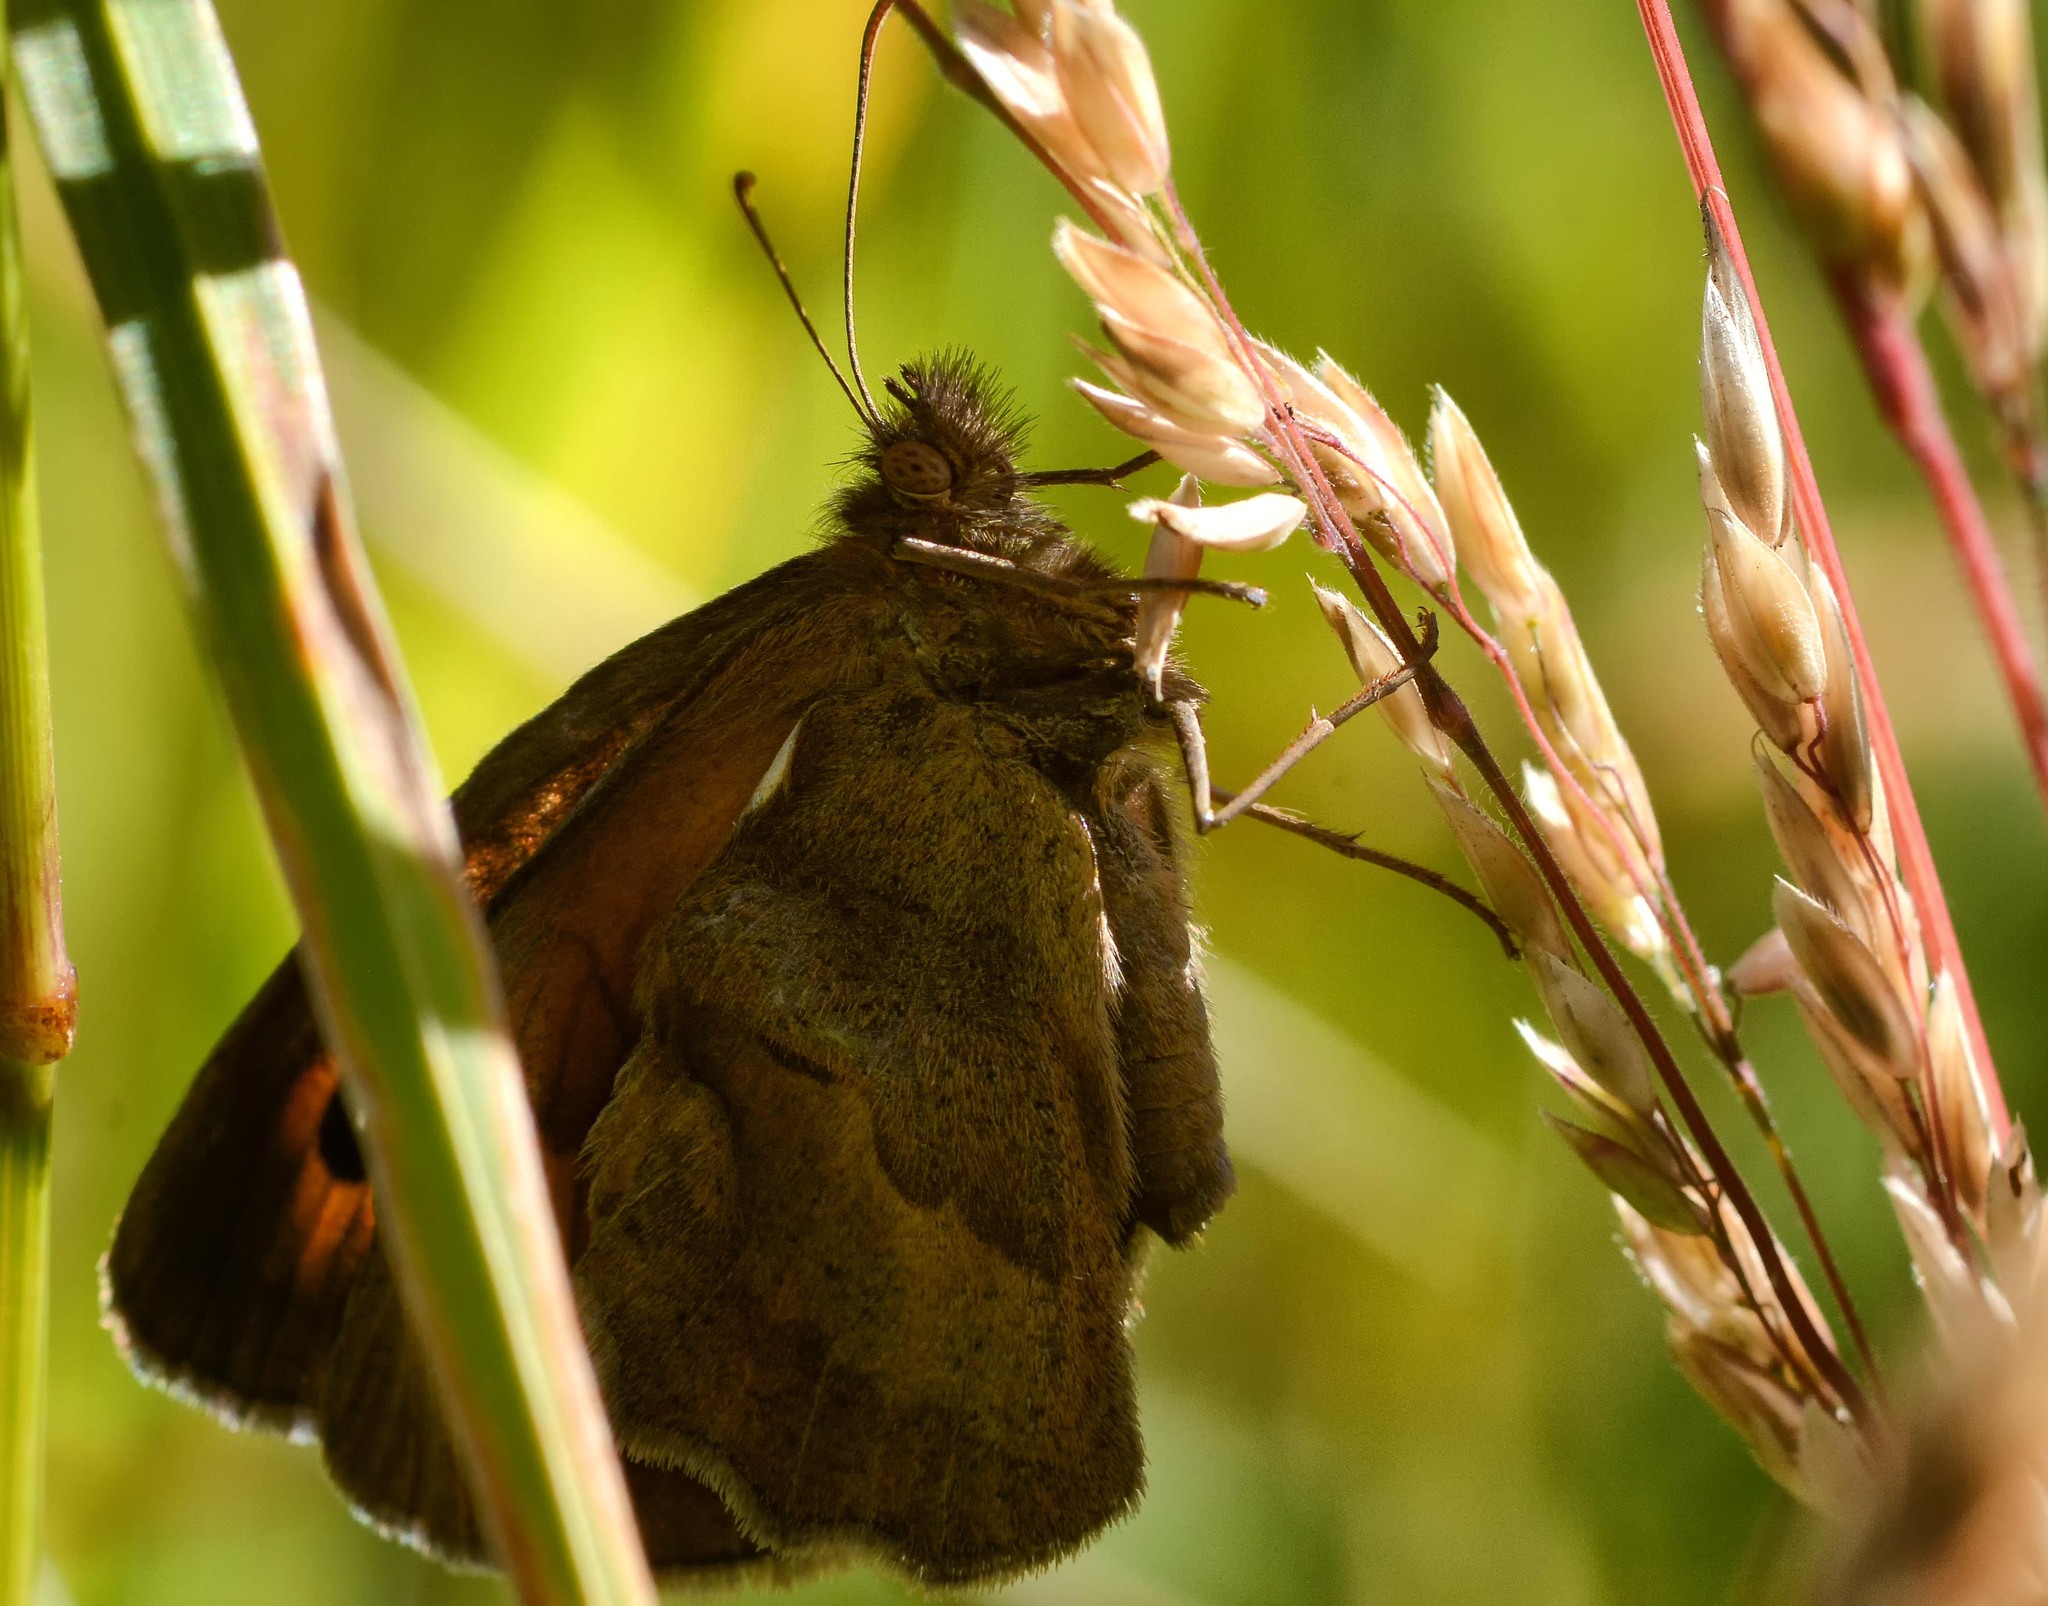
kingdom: Animalia
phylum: Arthropoda
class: Insecta
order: Lepidoptera
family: Nymphalidae
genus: Maniola
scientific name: Maniola jurtina
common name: Meadow brown
